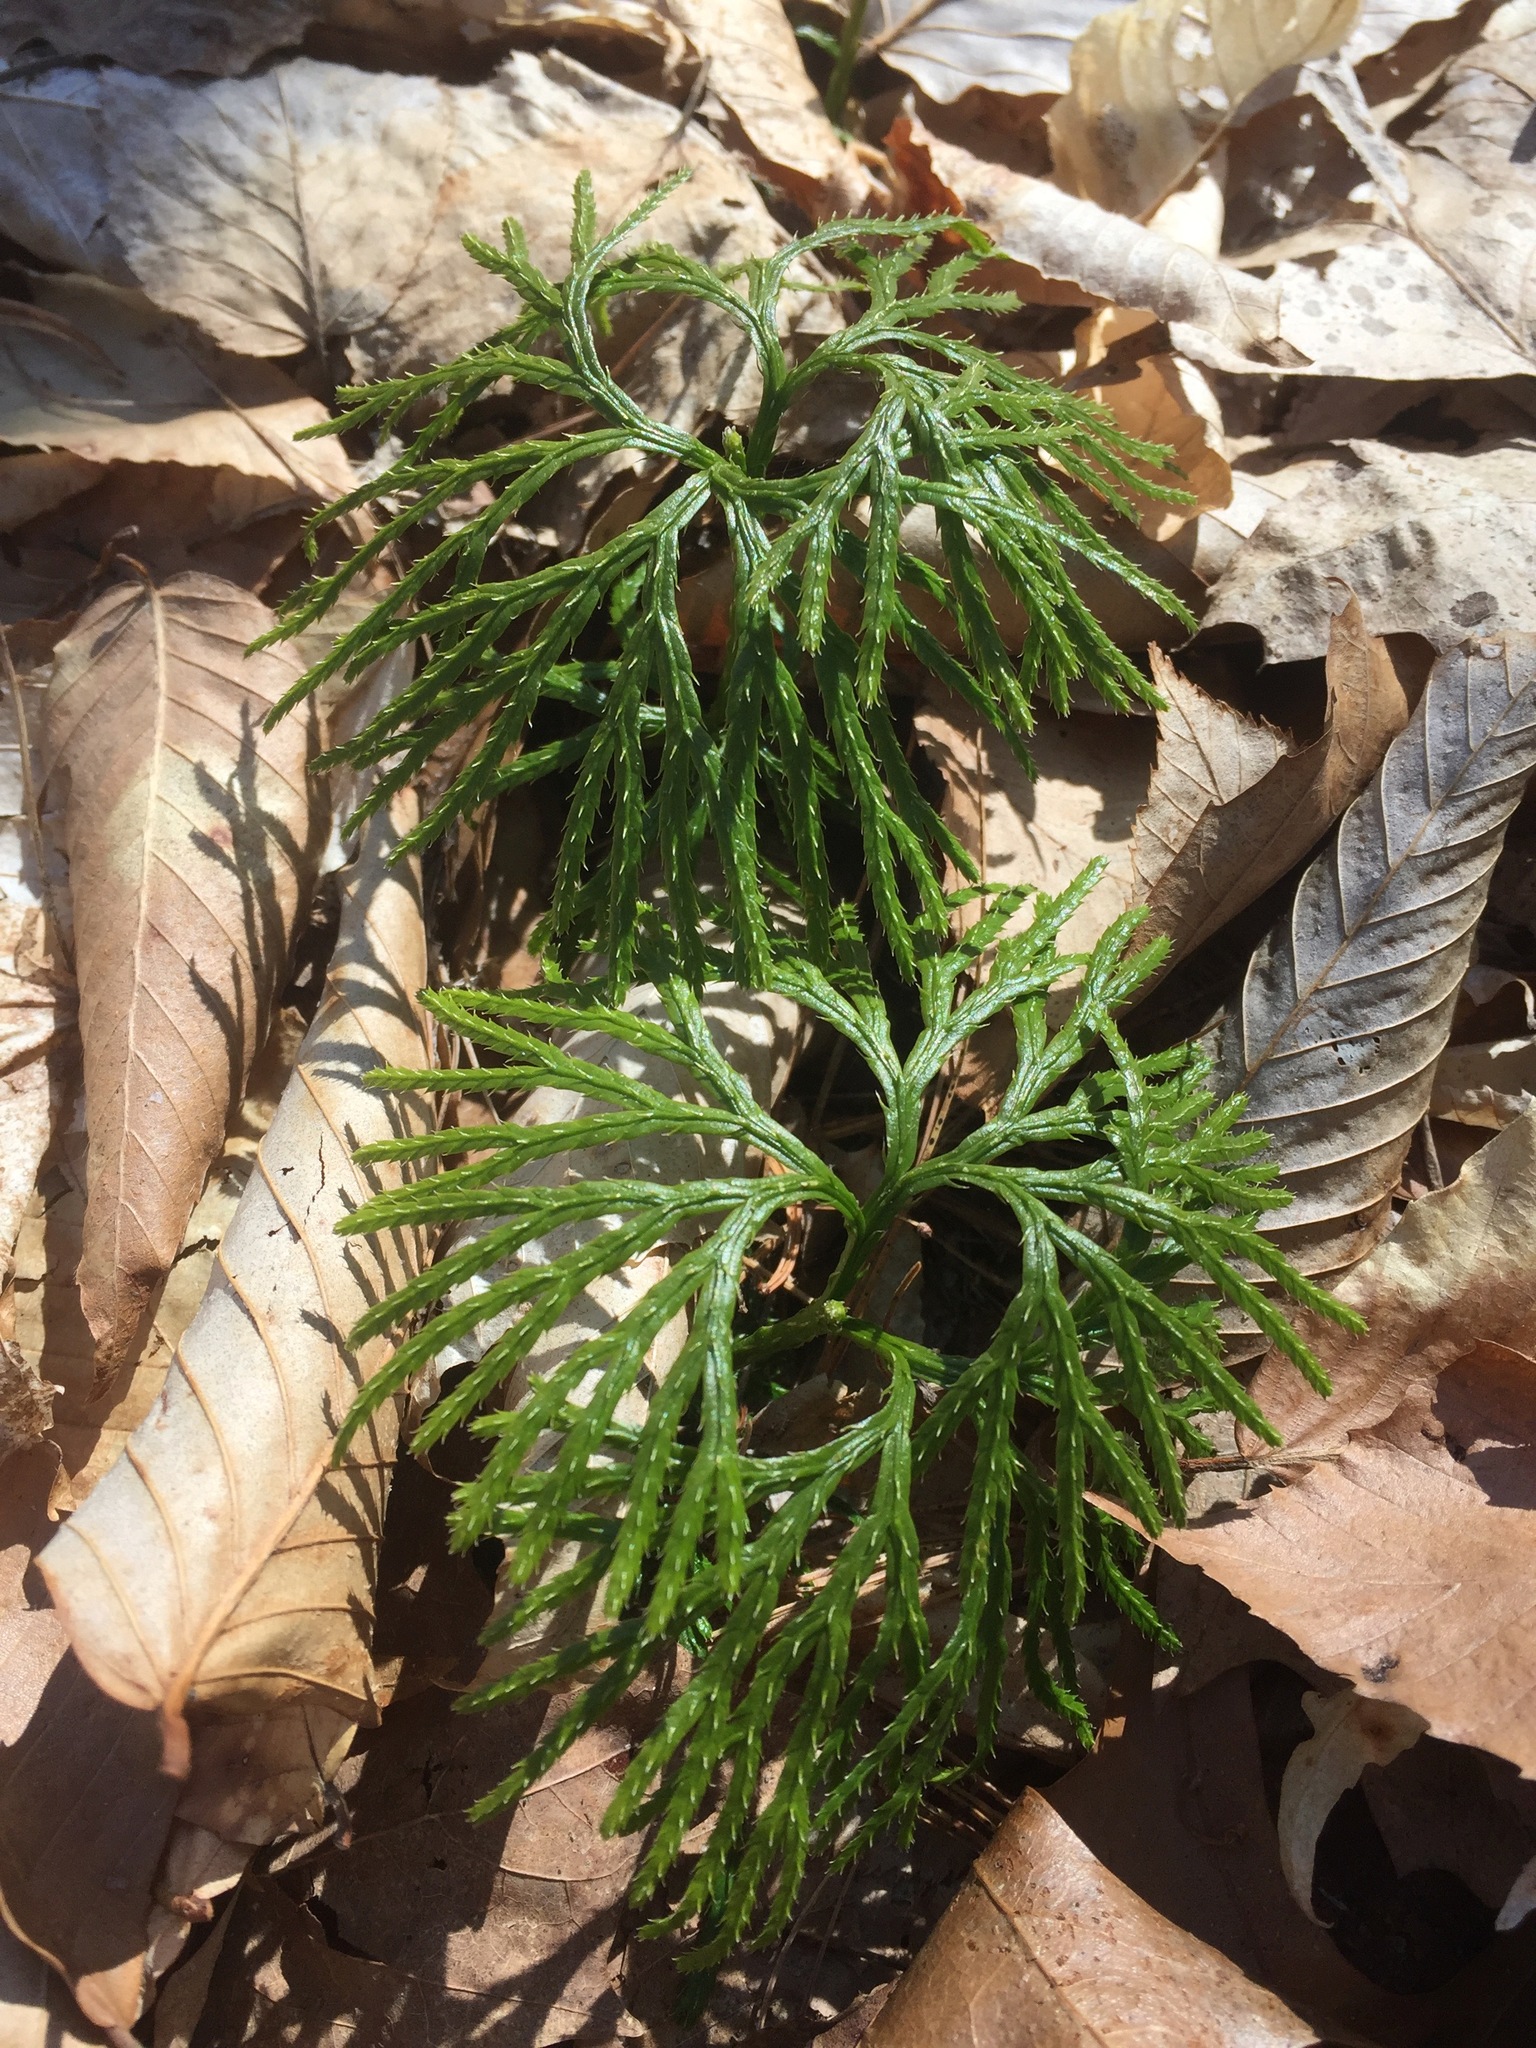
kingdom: Plantae
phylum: Tracheophyta
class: Lycopodiopsida
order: Lycopodiales
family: Lycopodiaceae
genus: Diphasiastrum
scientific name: Diphasiastrum digitatum
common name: Southern running-pine
